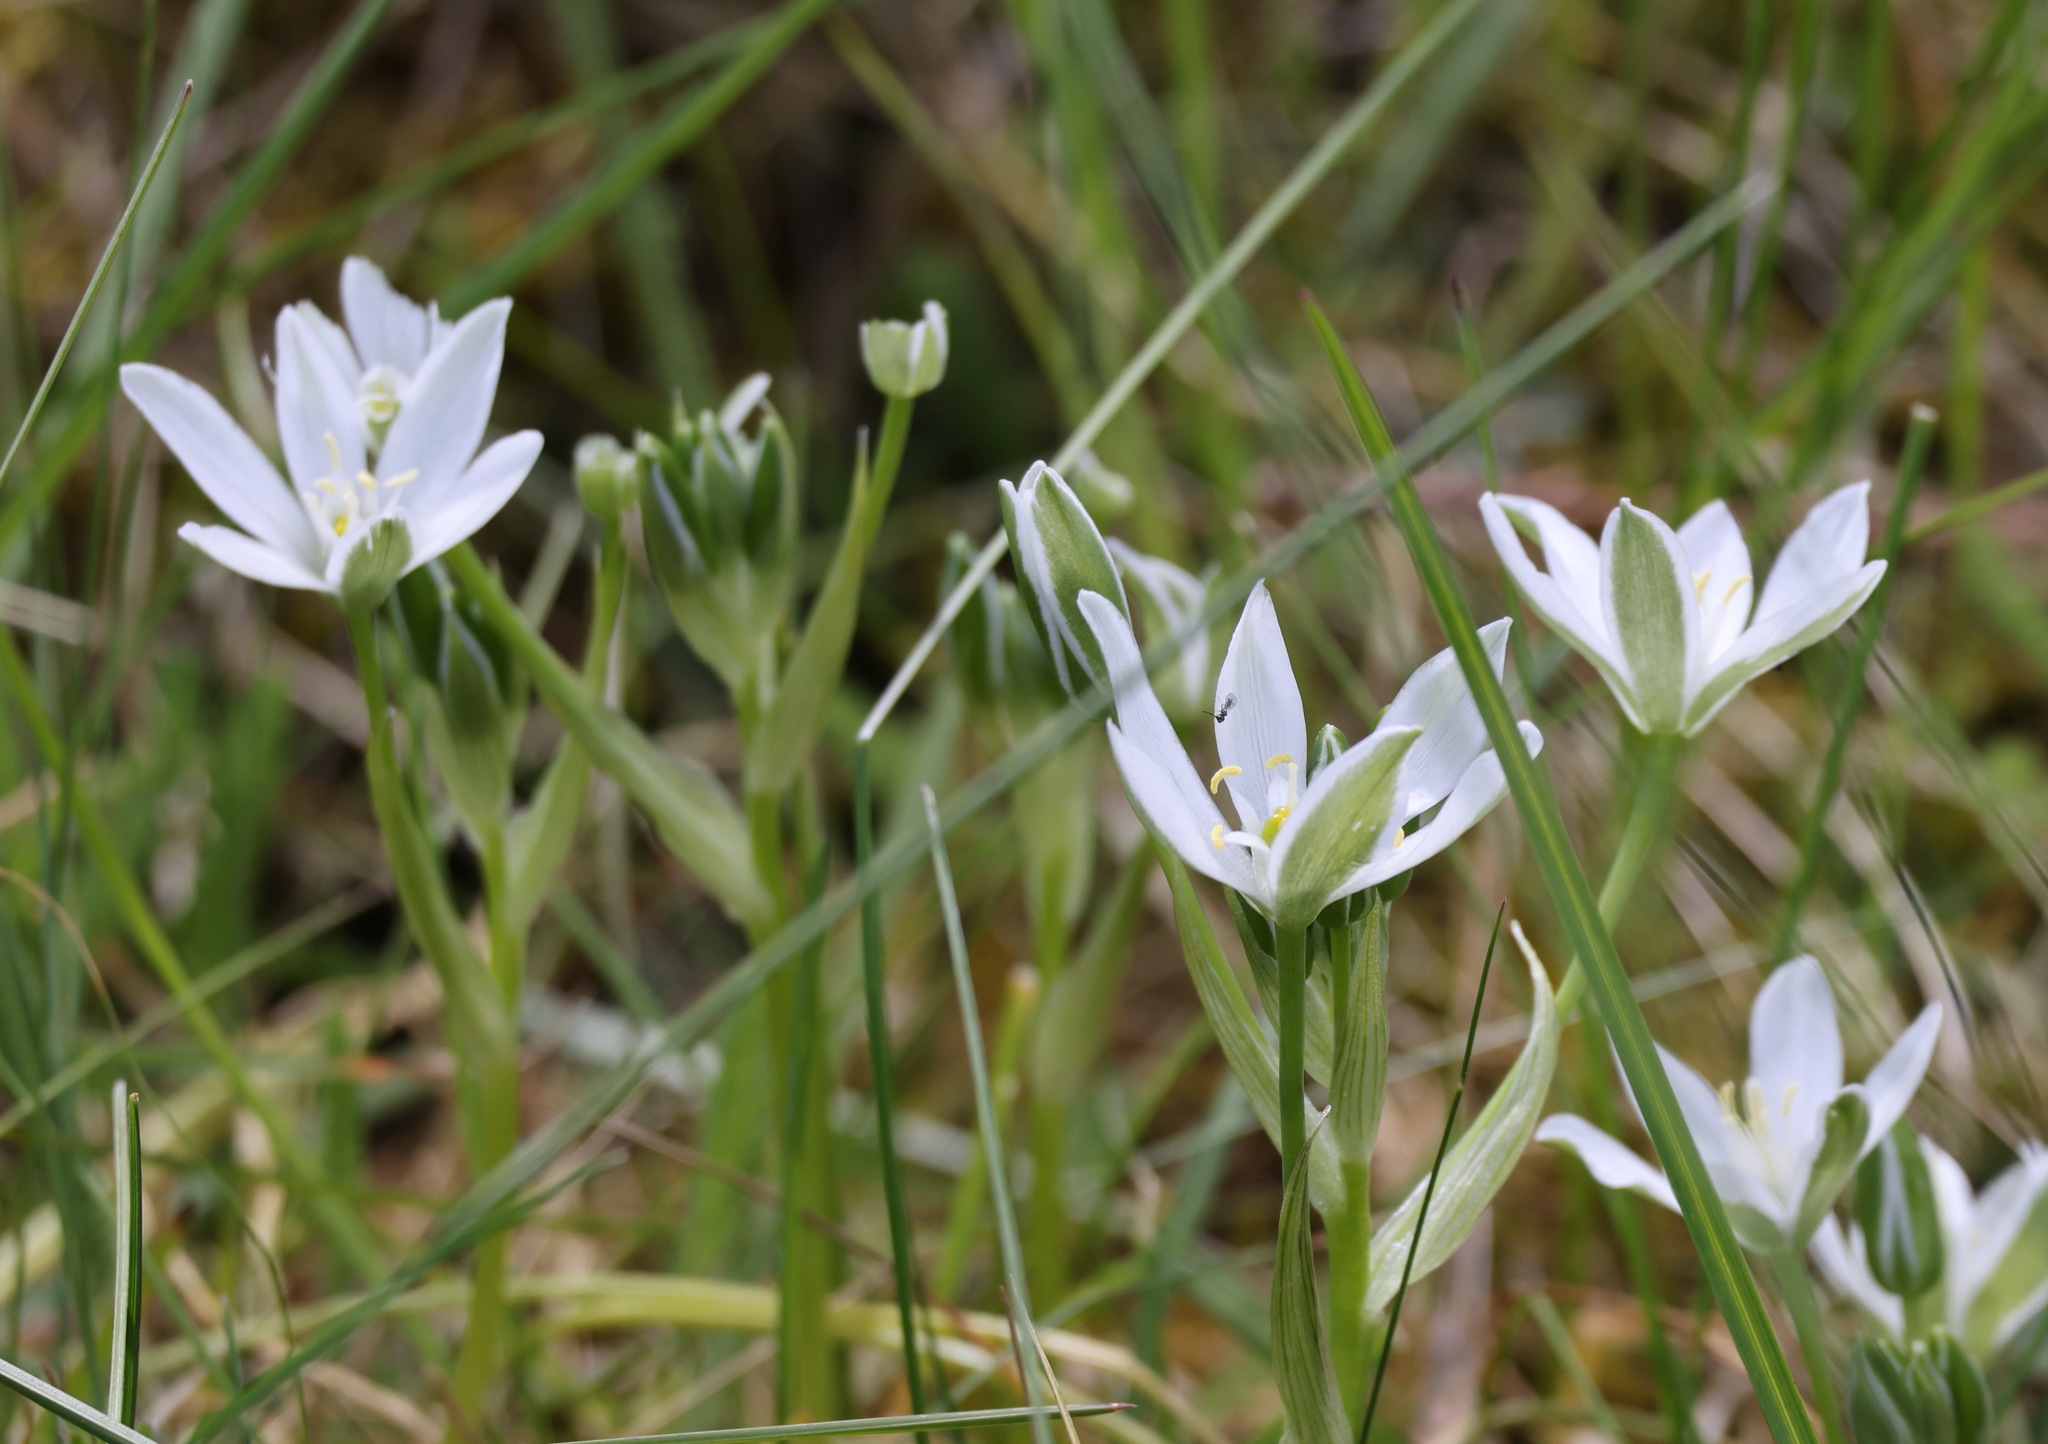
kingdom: Plantae
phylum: Tracheophyta
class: Liliopsida
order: Asparagales
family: Asparagaceae
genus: Ornithogalum
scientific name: Ornithogalum umbellatum
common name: Garden star-of-bethlehem
